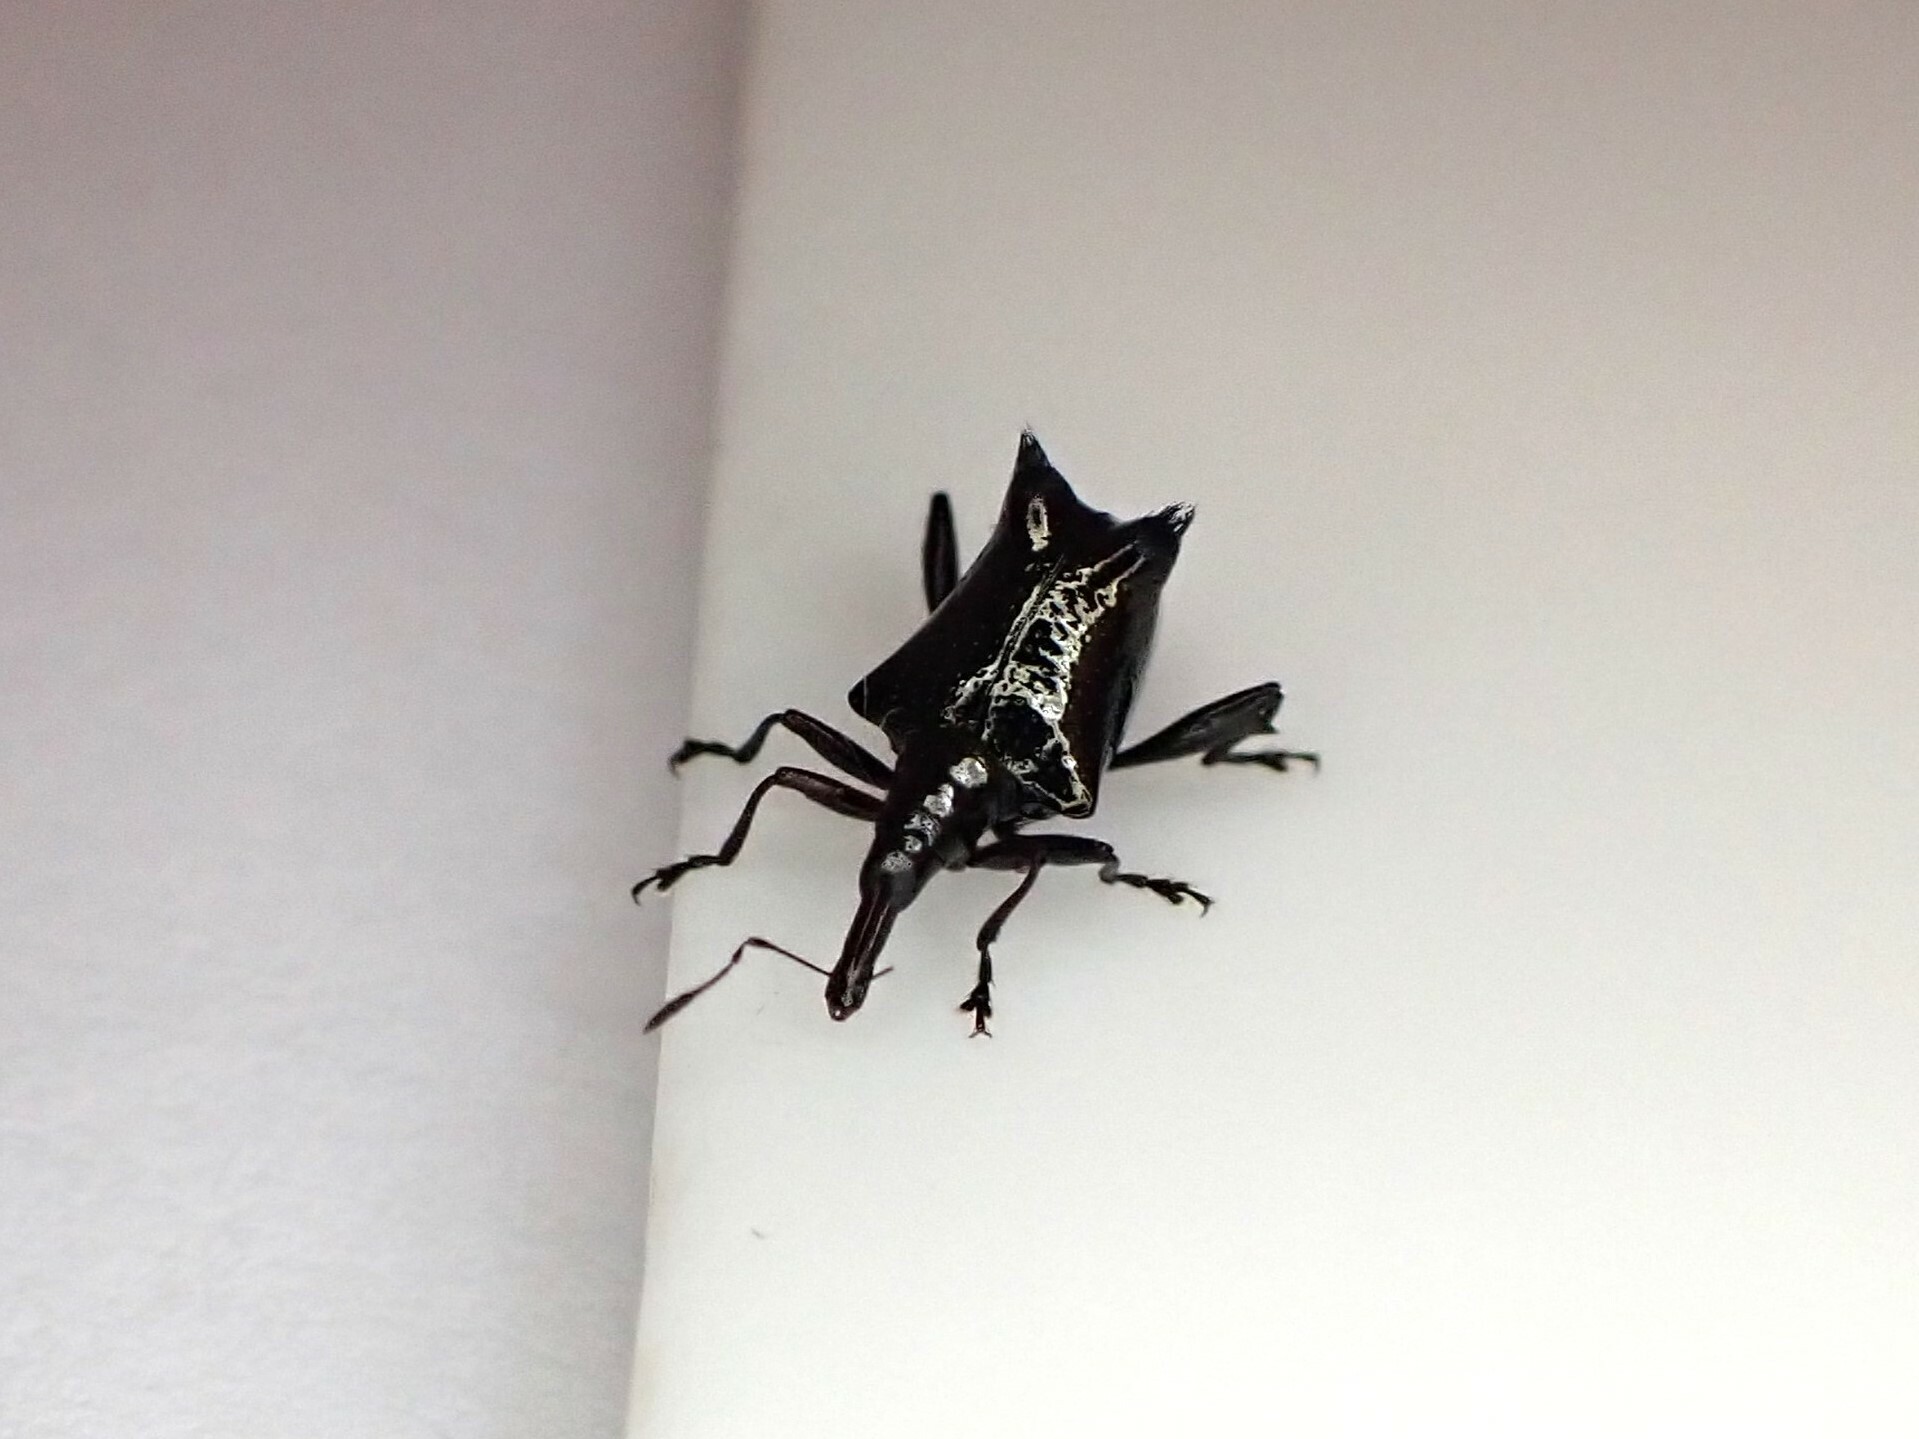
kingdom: Animalia
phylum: Arthropoda
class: Insecta
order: Coleoptera
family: Curculionidae
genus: Scolopterus
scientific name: Scolopterus penicillatus
